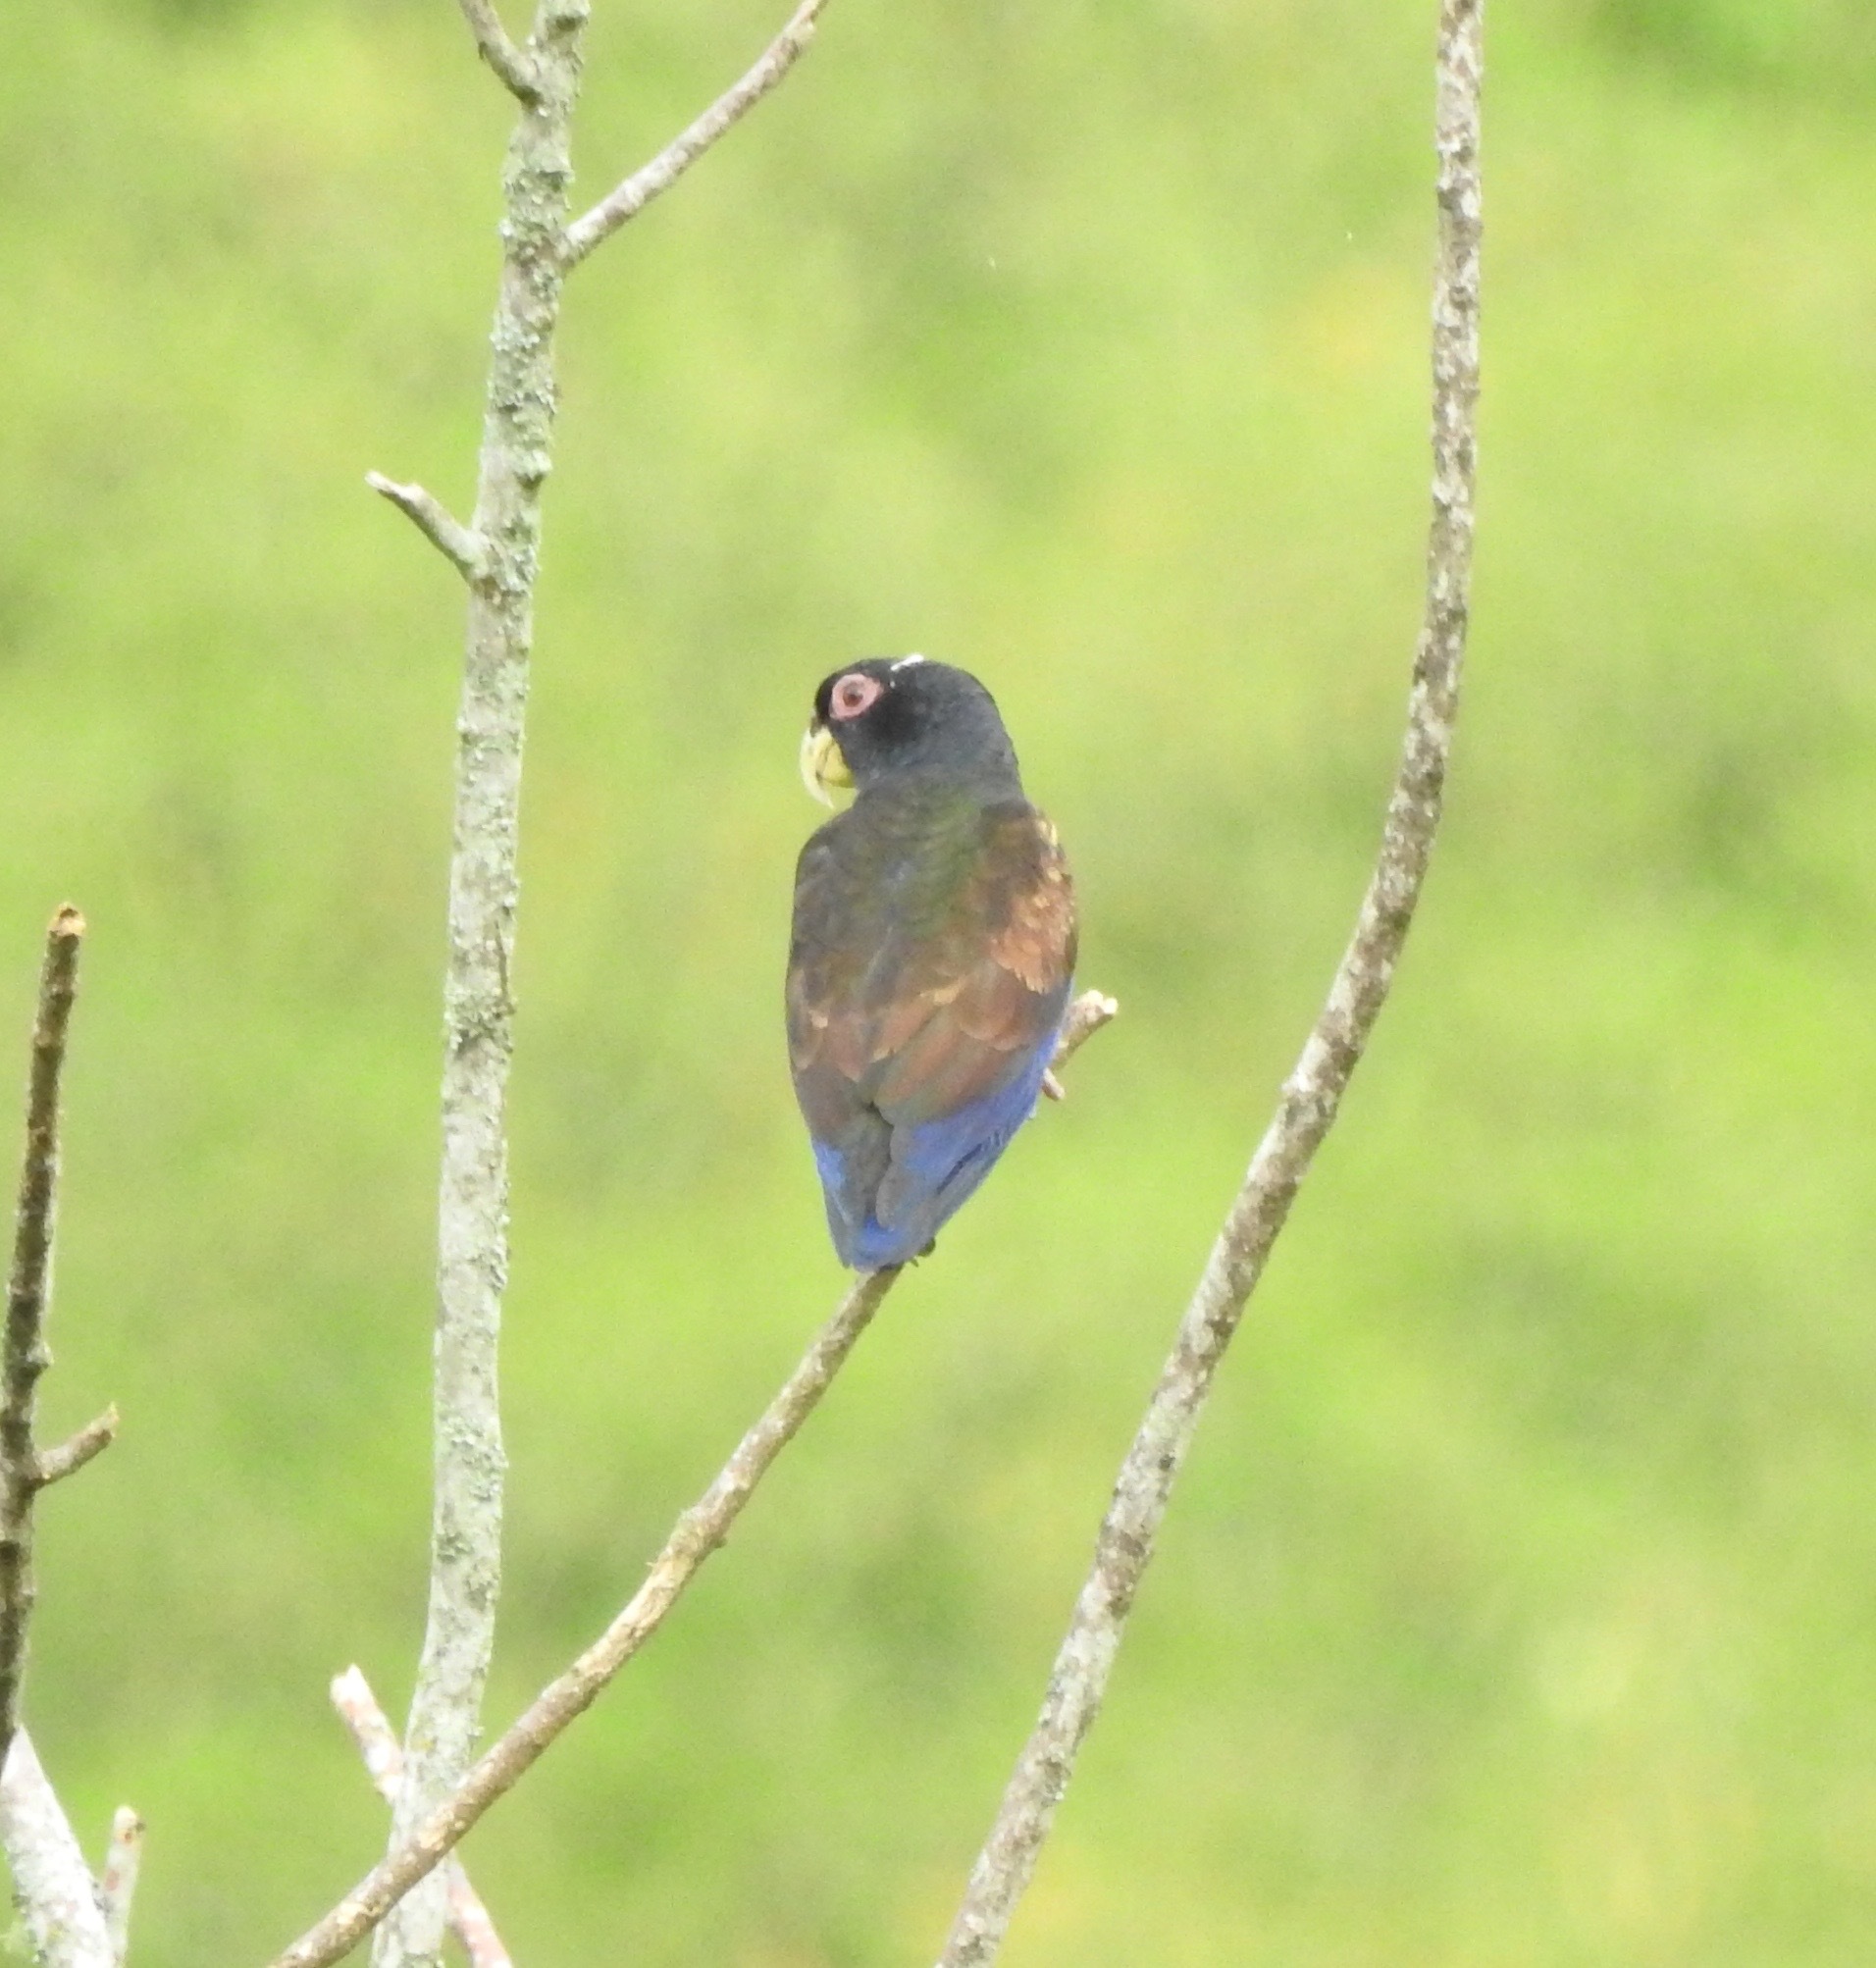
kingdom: Animalia
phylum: Chordata
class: Aves
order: Psittaciformes
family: Psittacidae
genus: Pionus
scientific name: Pionus chalcopterus
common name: Bronze-winged parrot
